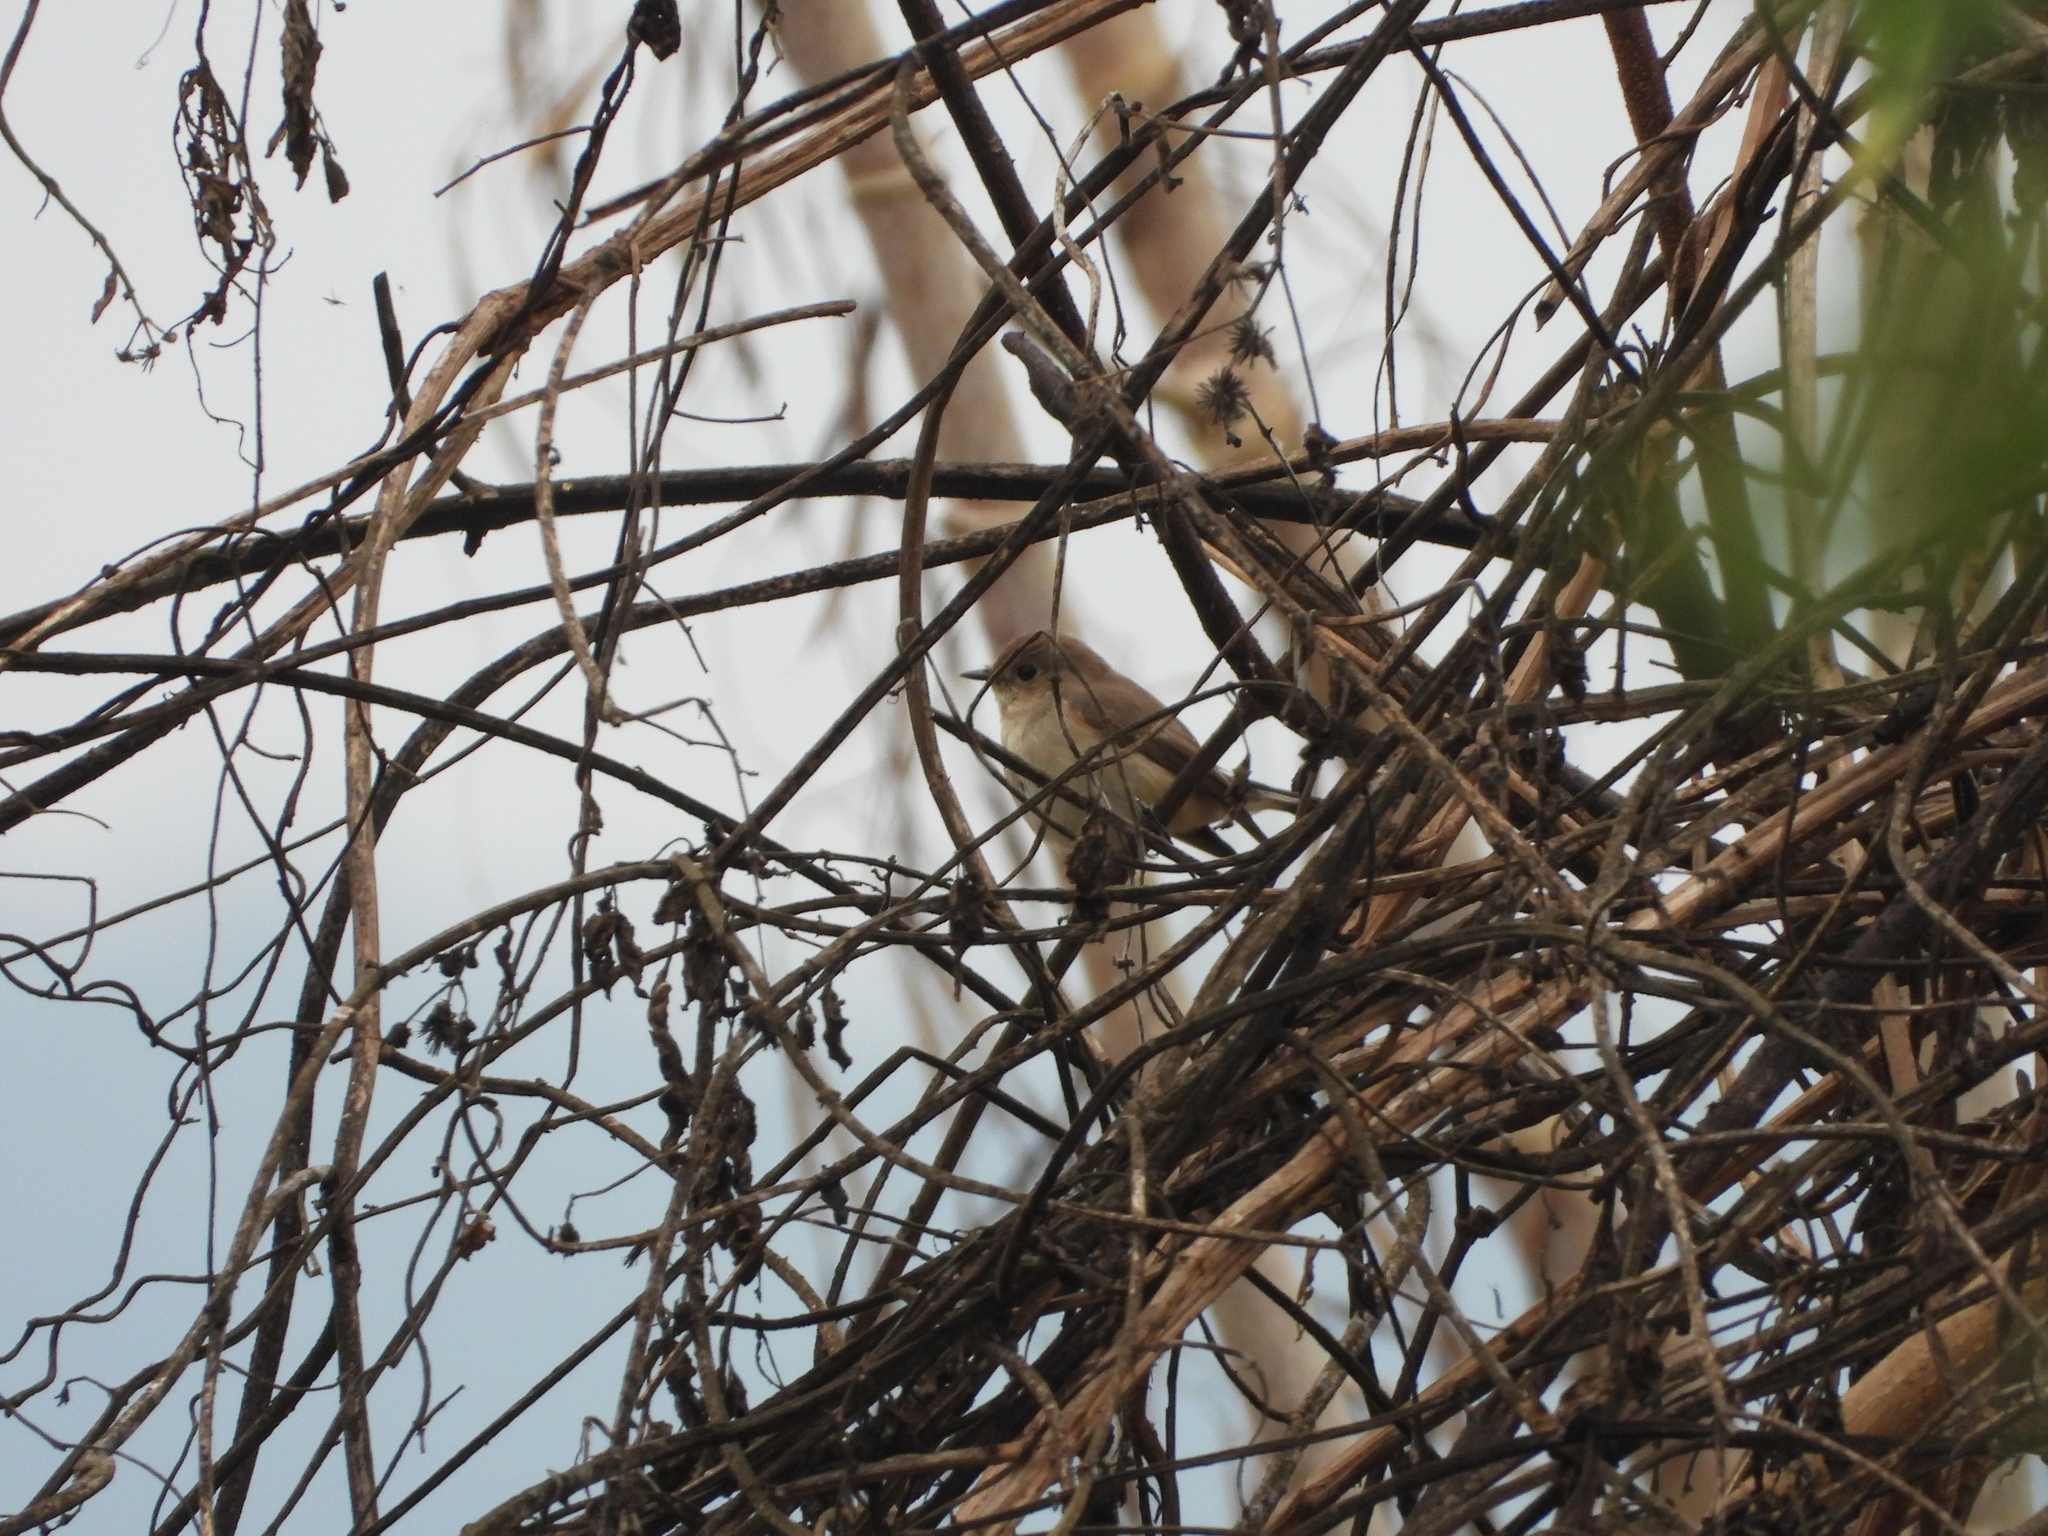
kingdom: Animalia
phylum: Chordata
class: Aves
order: Passeriformes
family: Muscicapidae
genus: Ficedula
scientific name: Ficedula albicilla
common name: Taiga flycatcher
